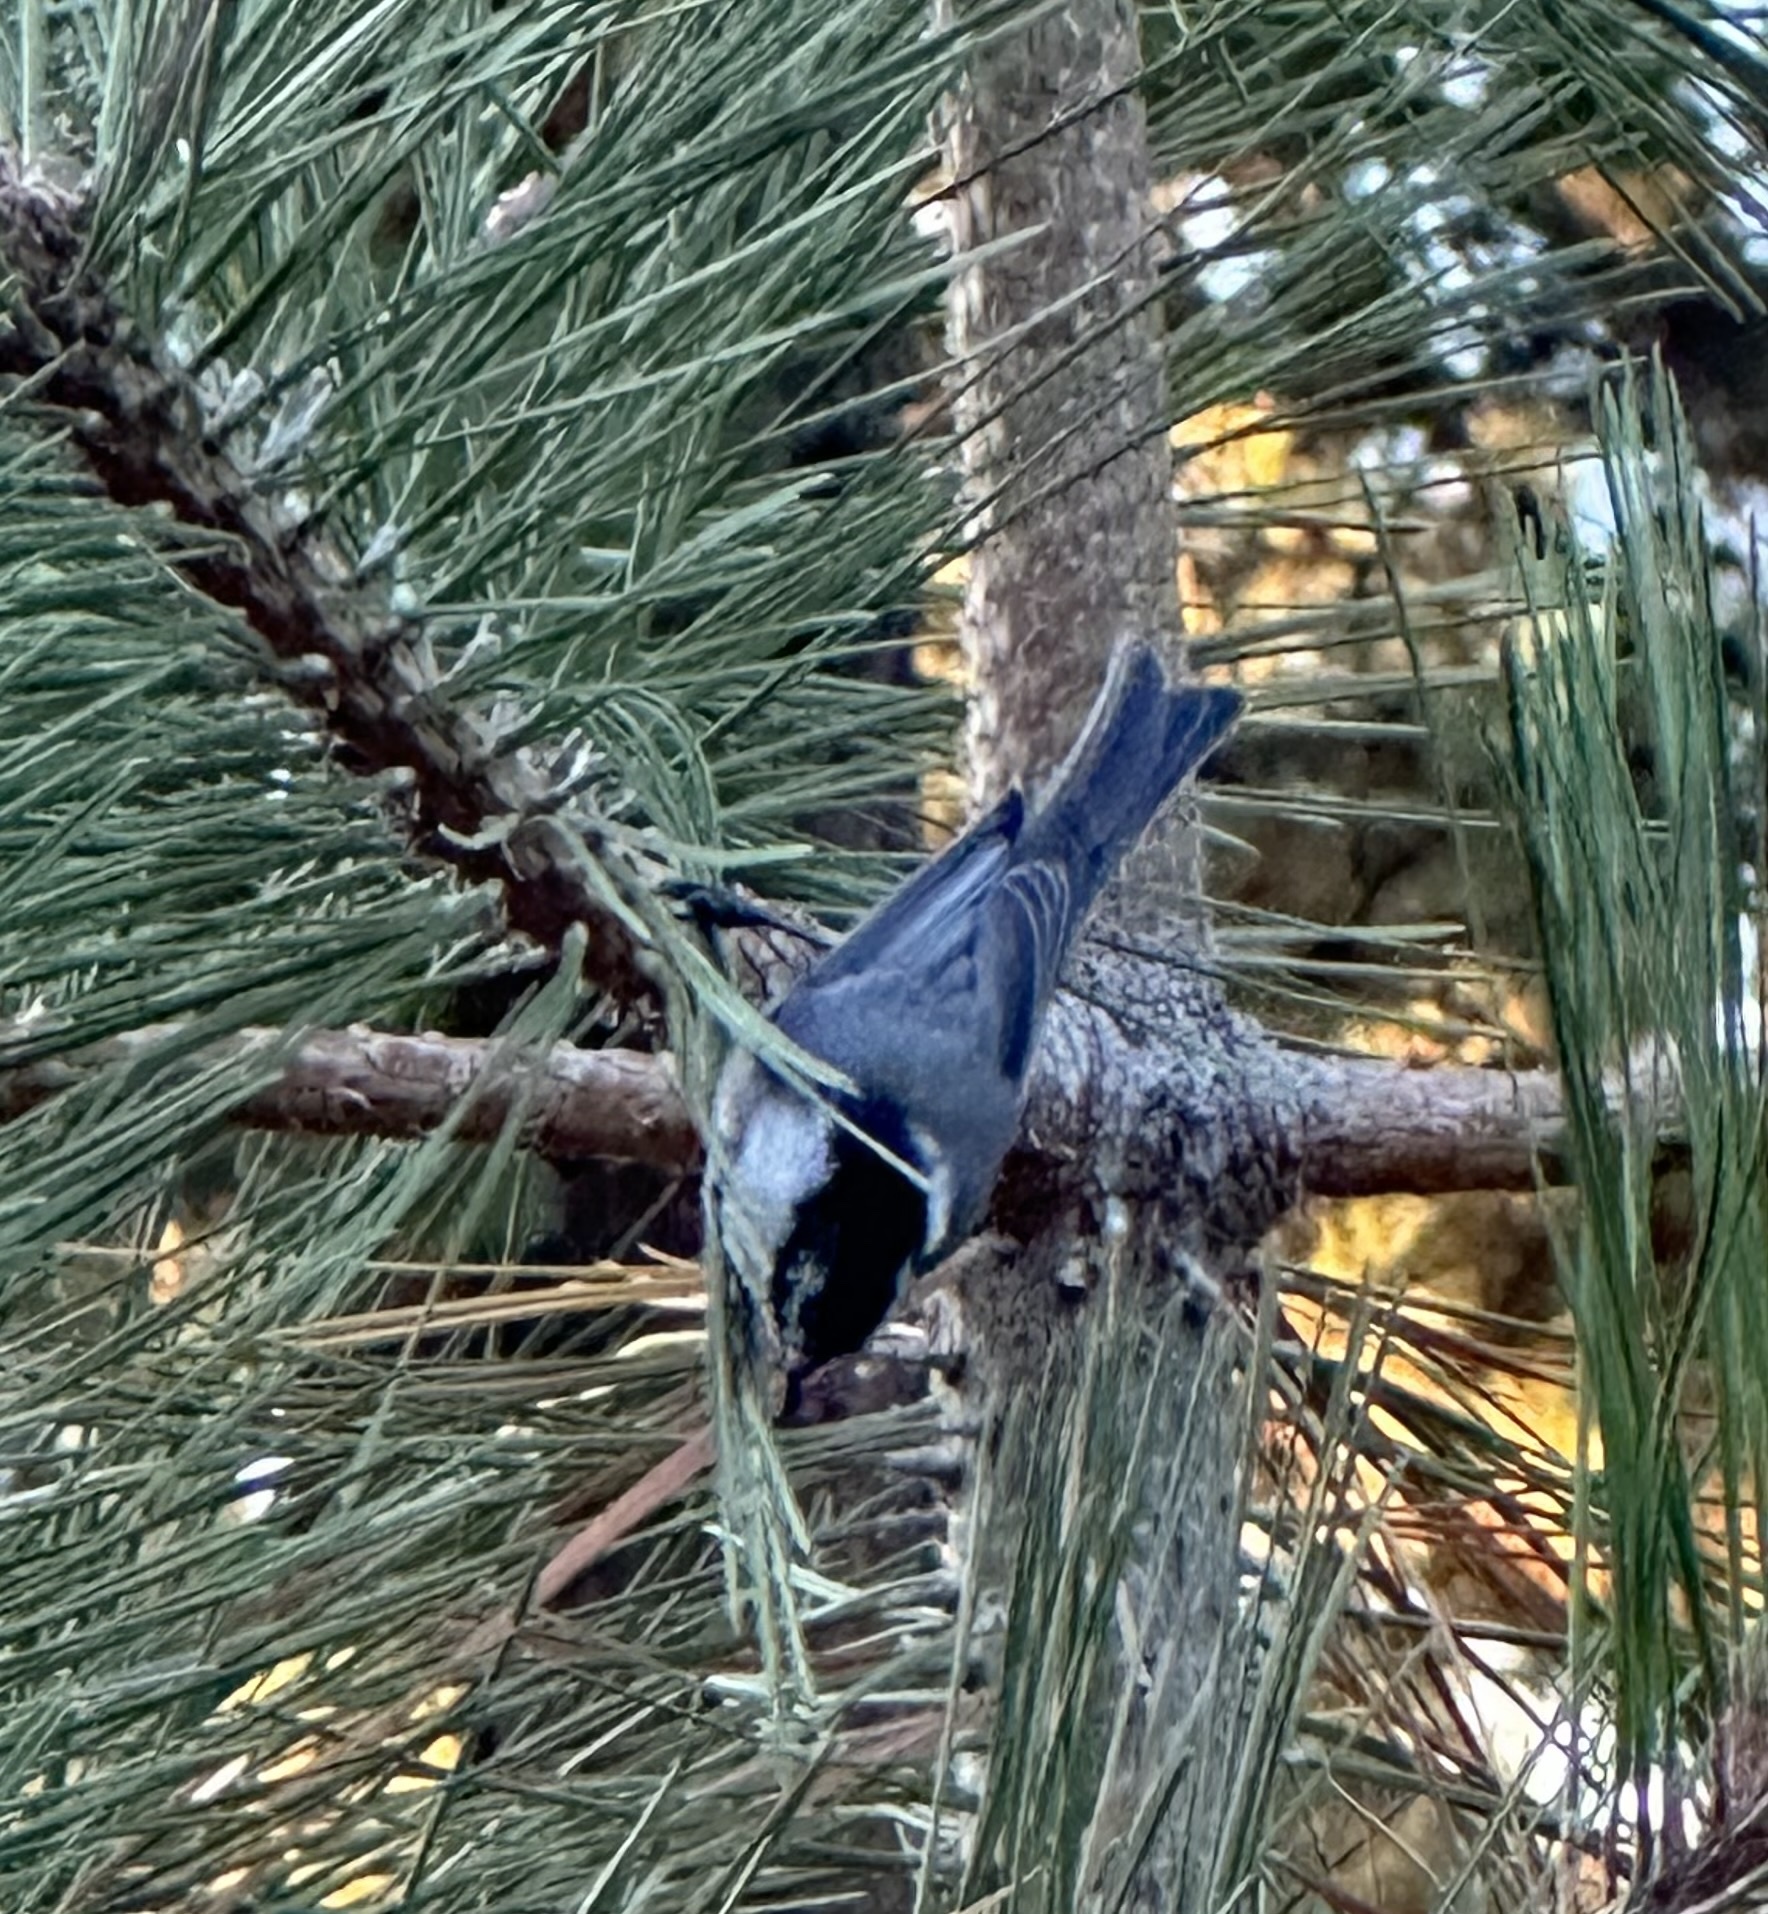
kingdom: Animalia
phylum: Chordata
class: Aves
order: Passeriformes
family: Paridae
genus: Poecile
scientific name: Poecile gambeli
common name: Mountain chickadee
